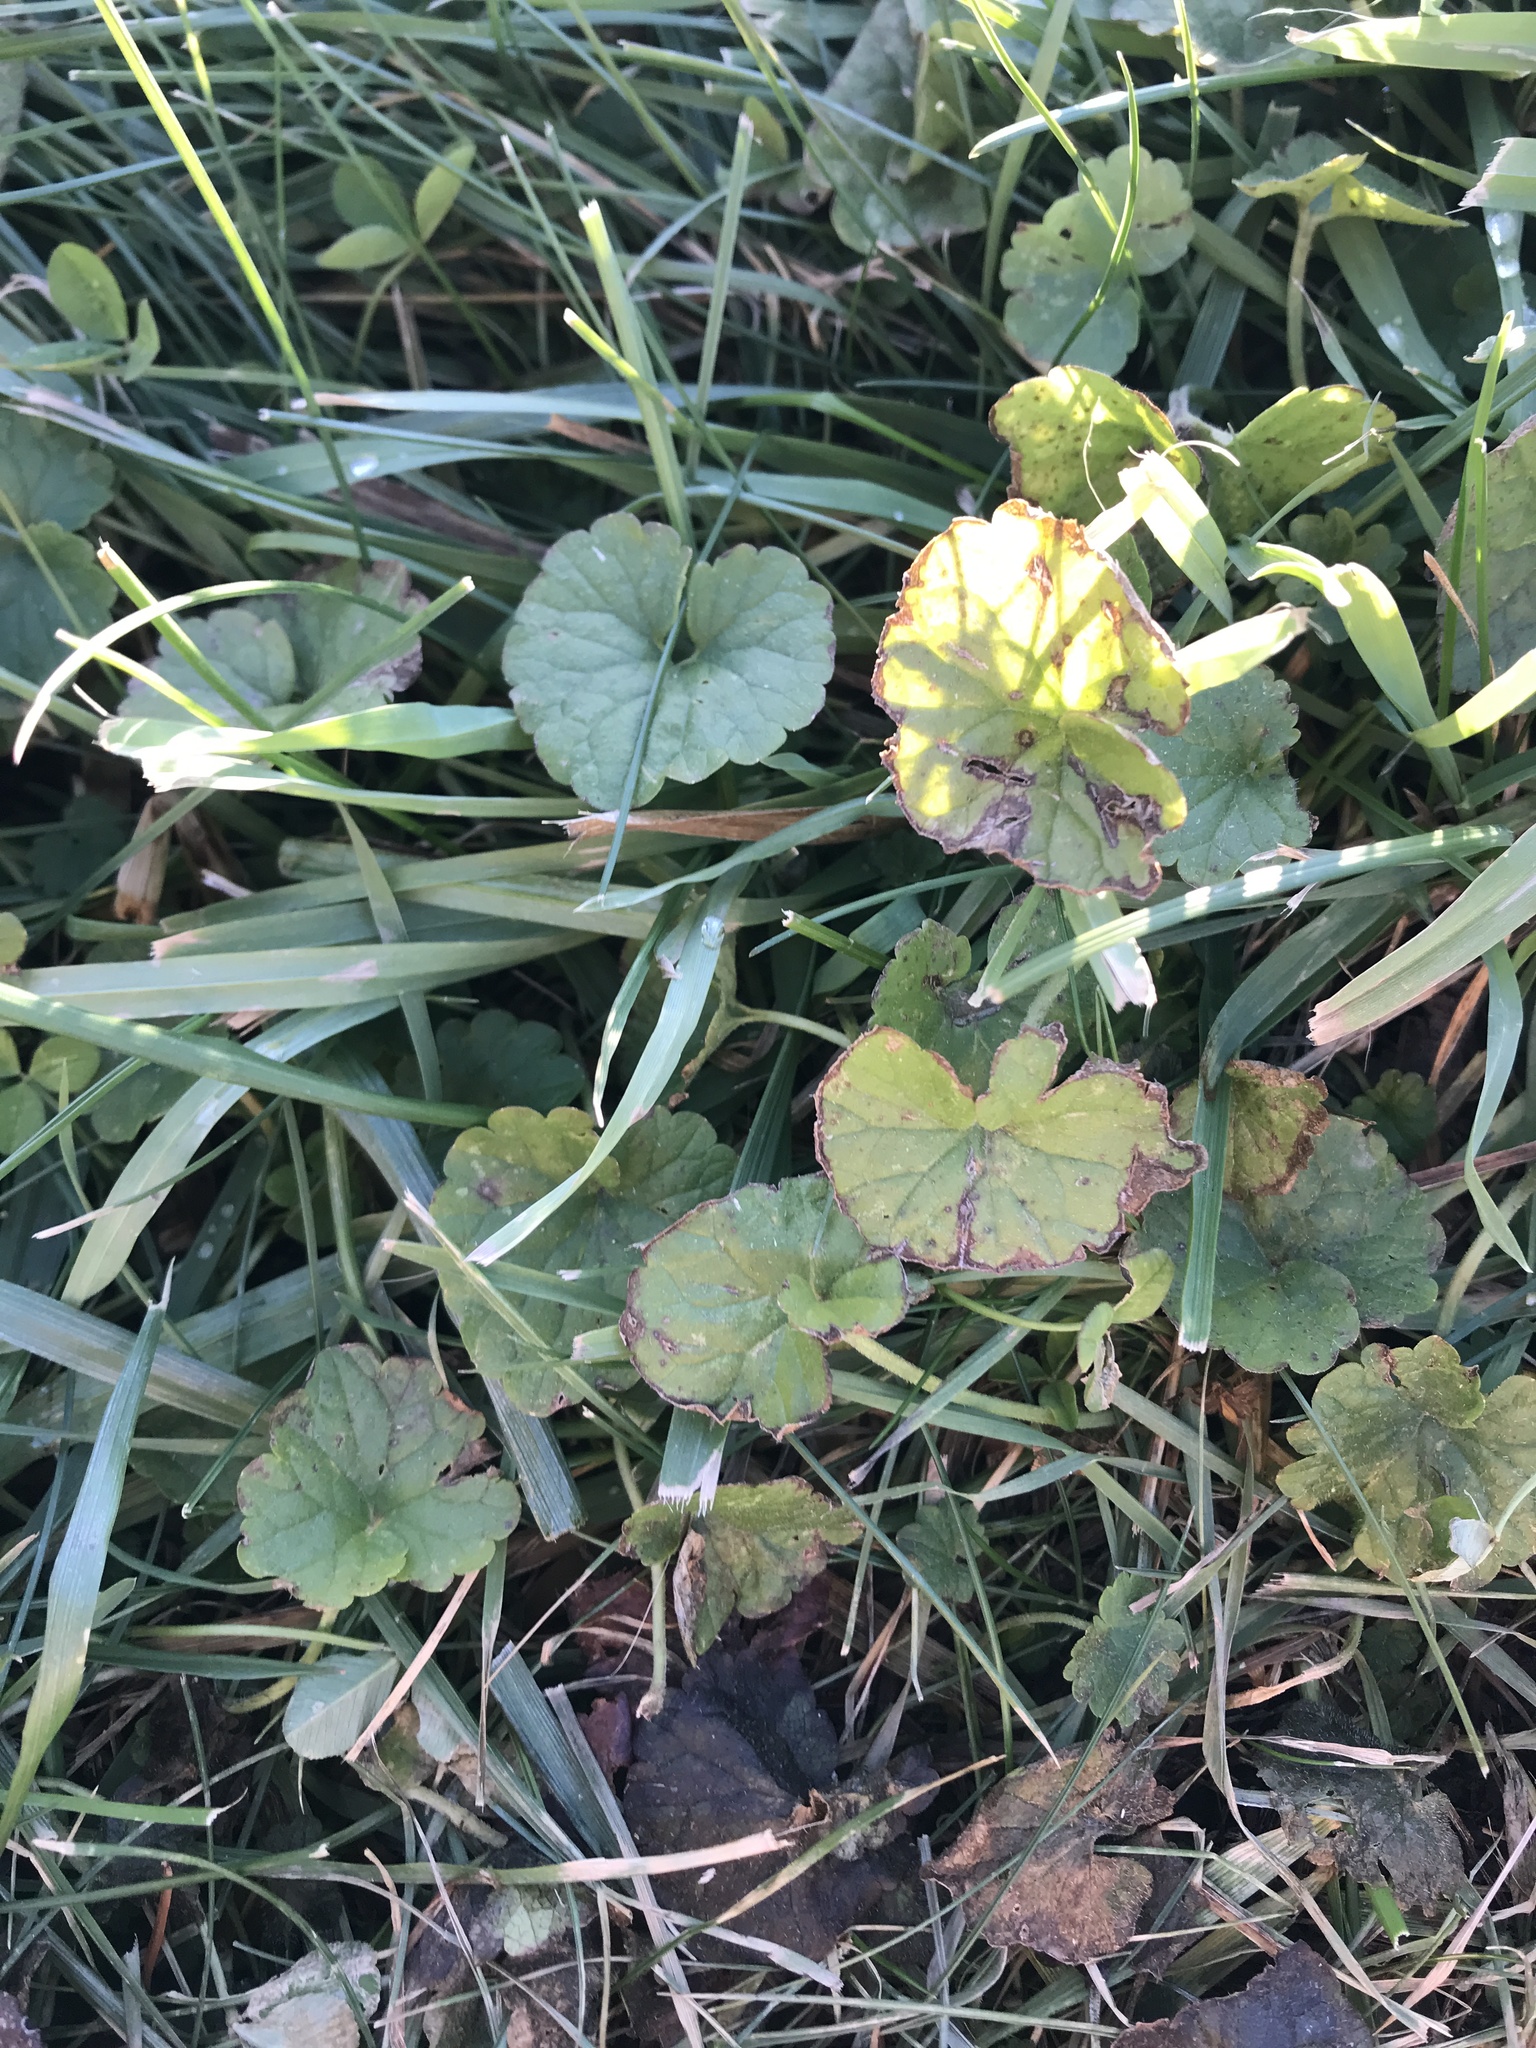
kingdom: Plantae
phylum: Tracheophyta
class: Magnoliopsida
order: Lamiales
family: Lamiaceae
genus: Glechoma
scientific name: Glechoma hederacea
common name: Ground ivy
